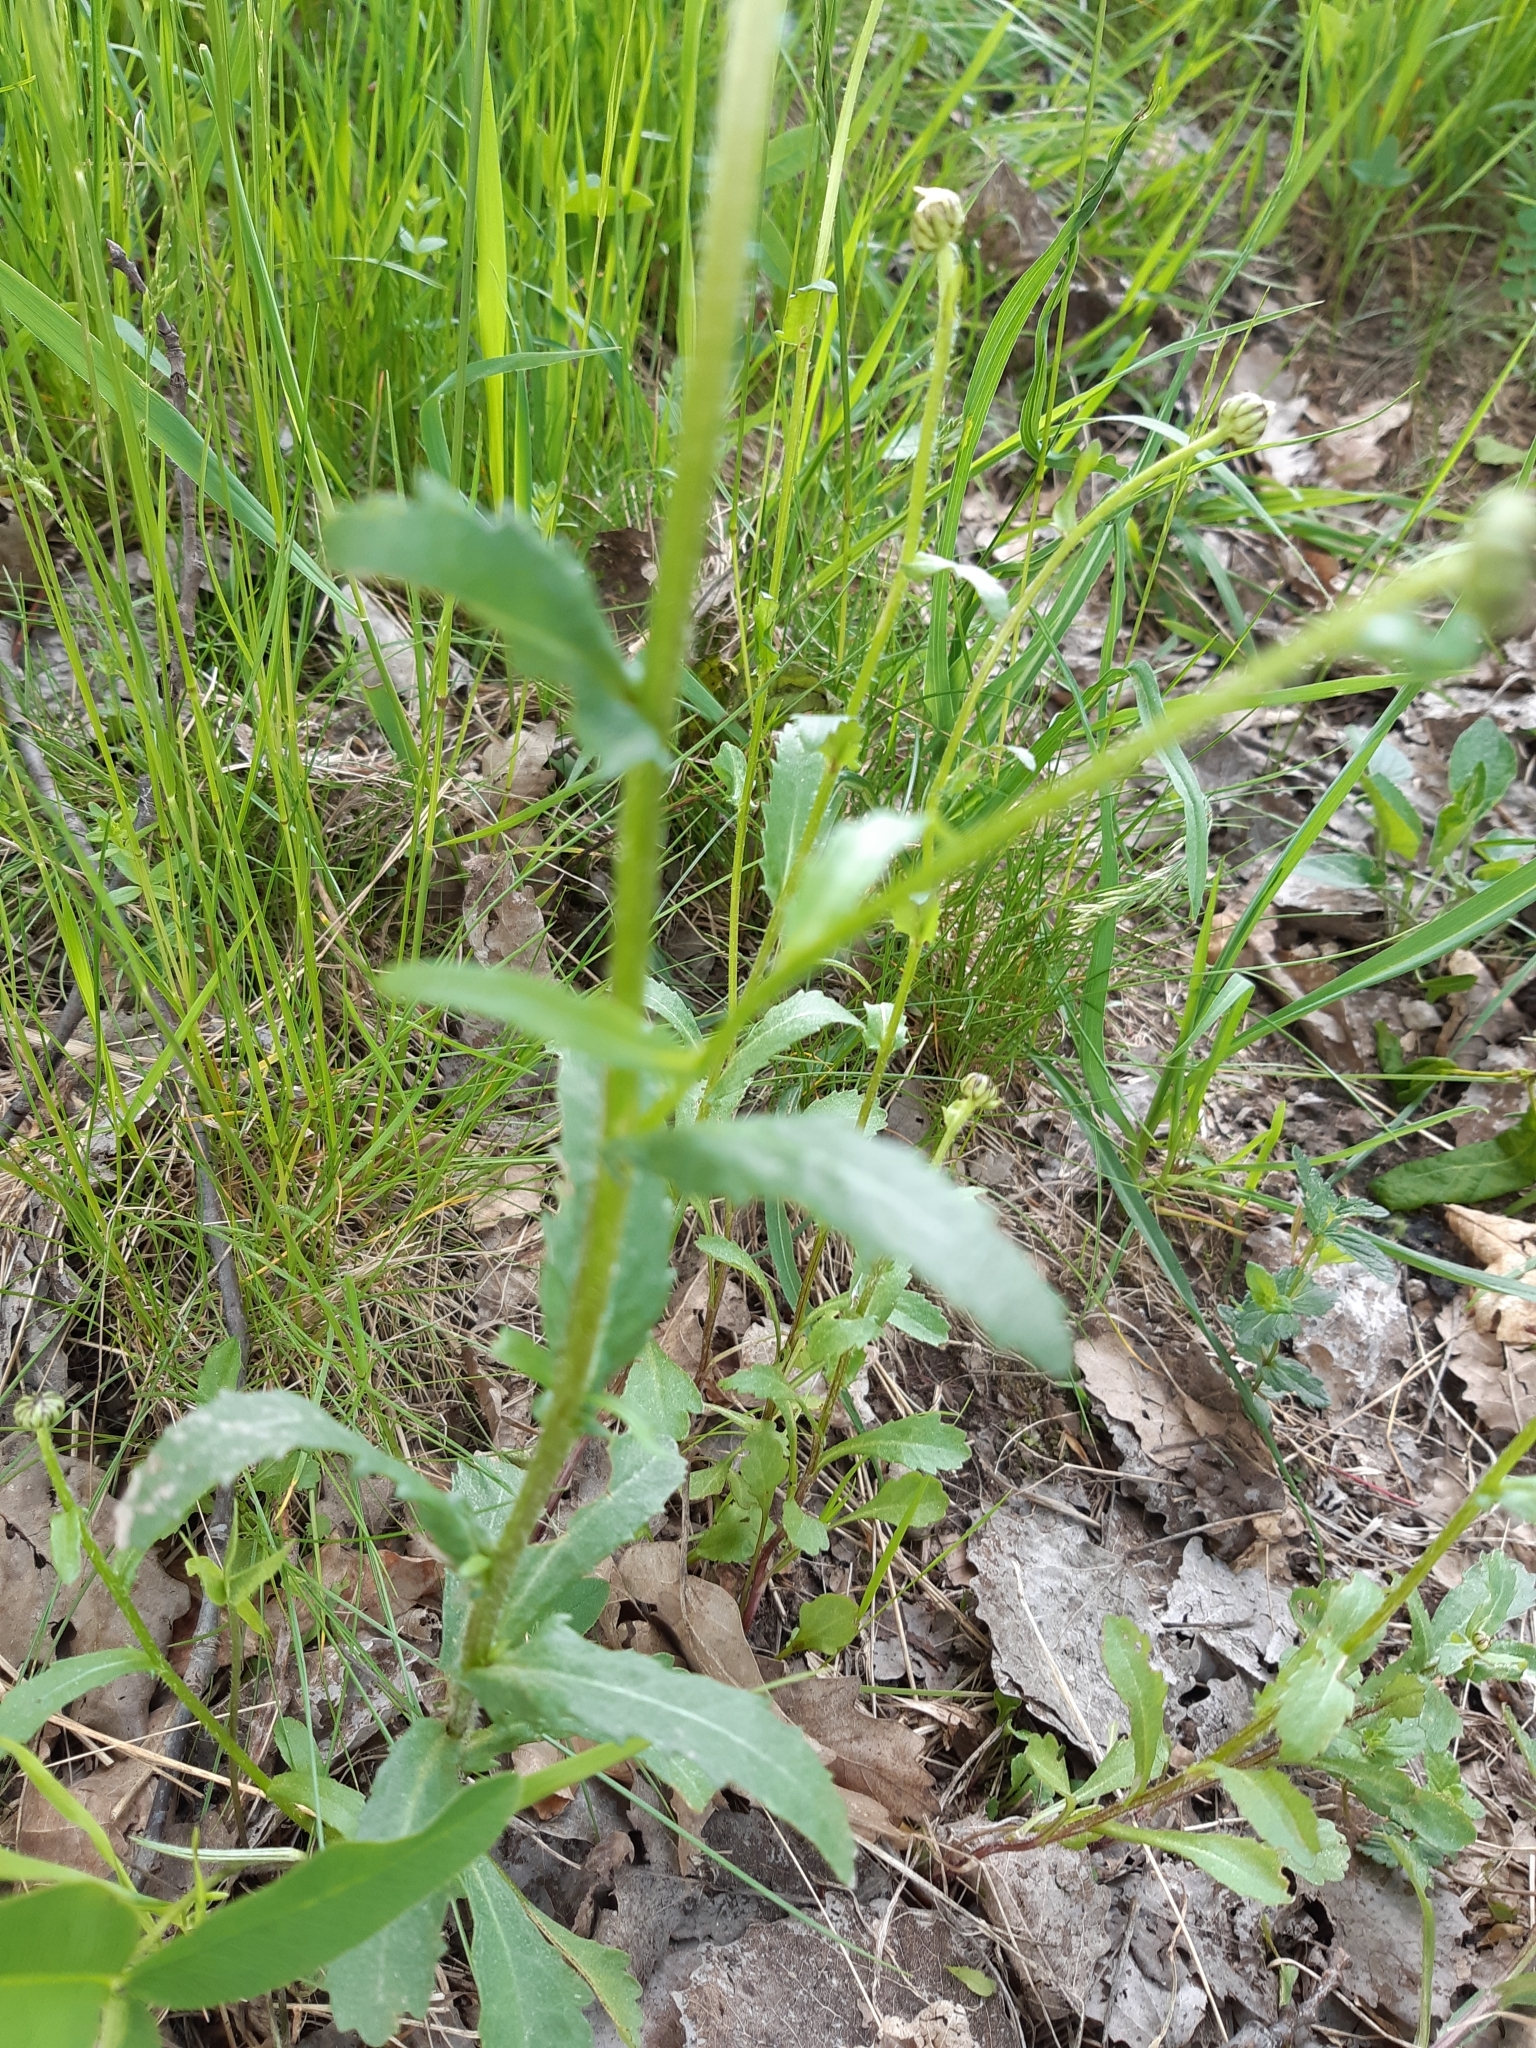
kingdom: Plantae
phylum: Tracheophyta
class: Magnoliopsida
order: Asterales
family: Asteraceae
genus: Leucanthemum
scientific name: Leucanthemum vulgare
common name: Oxeye daisy
